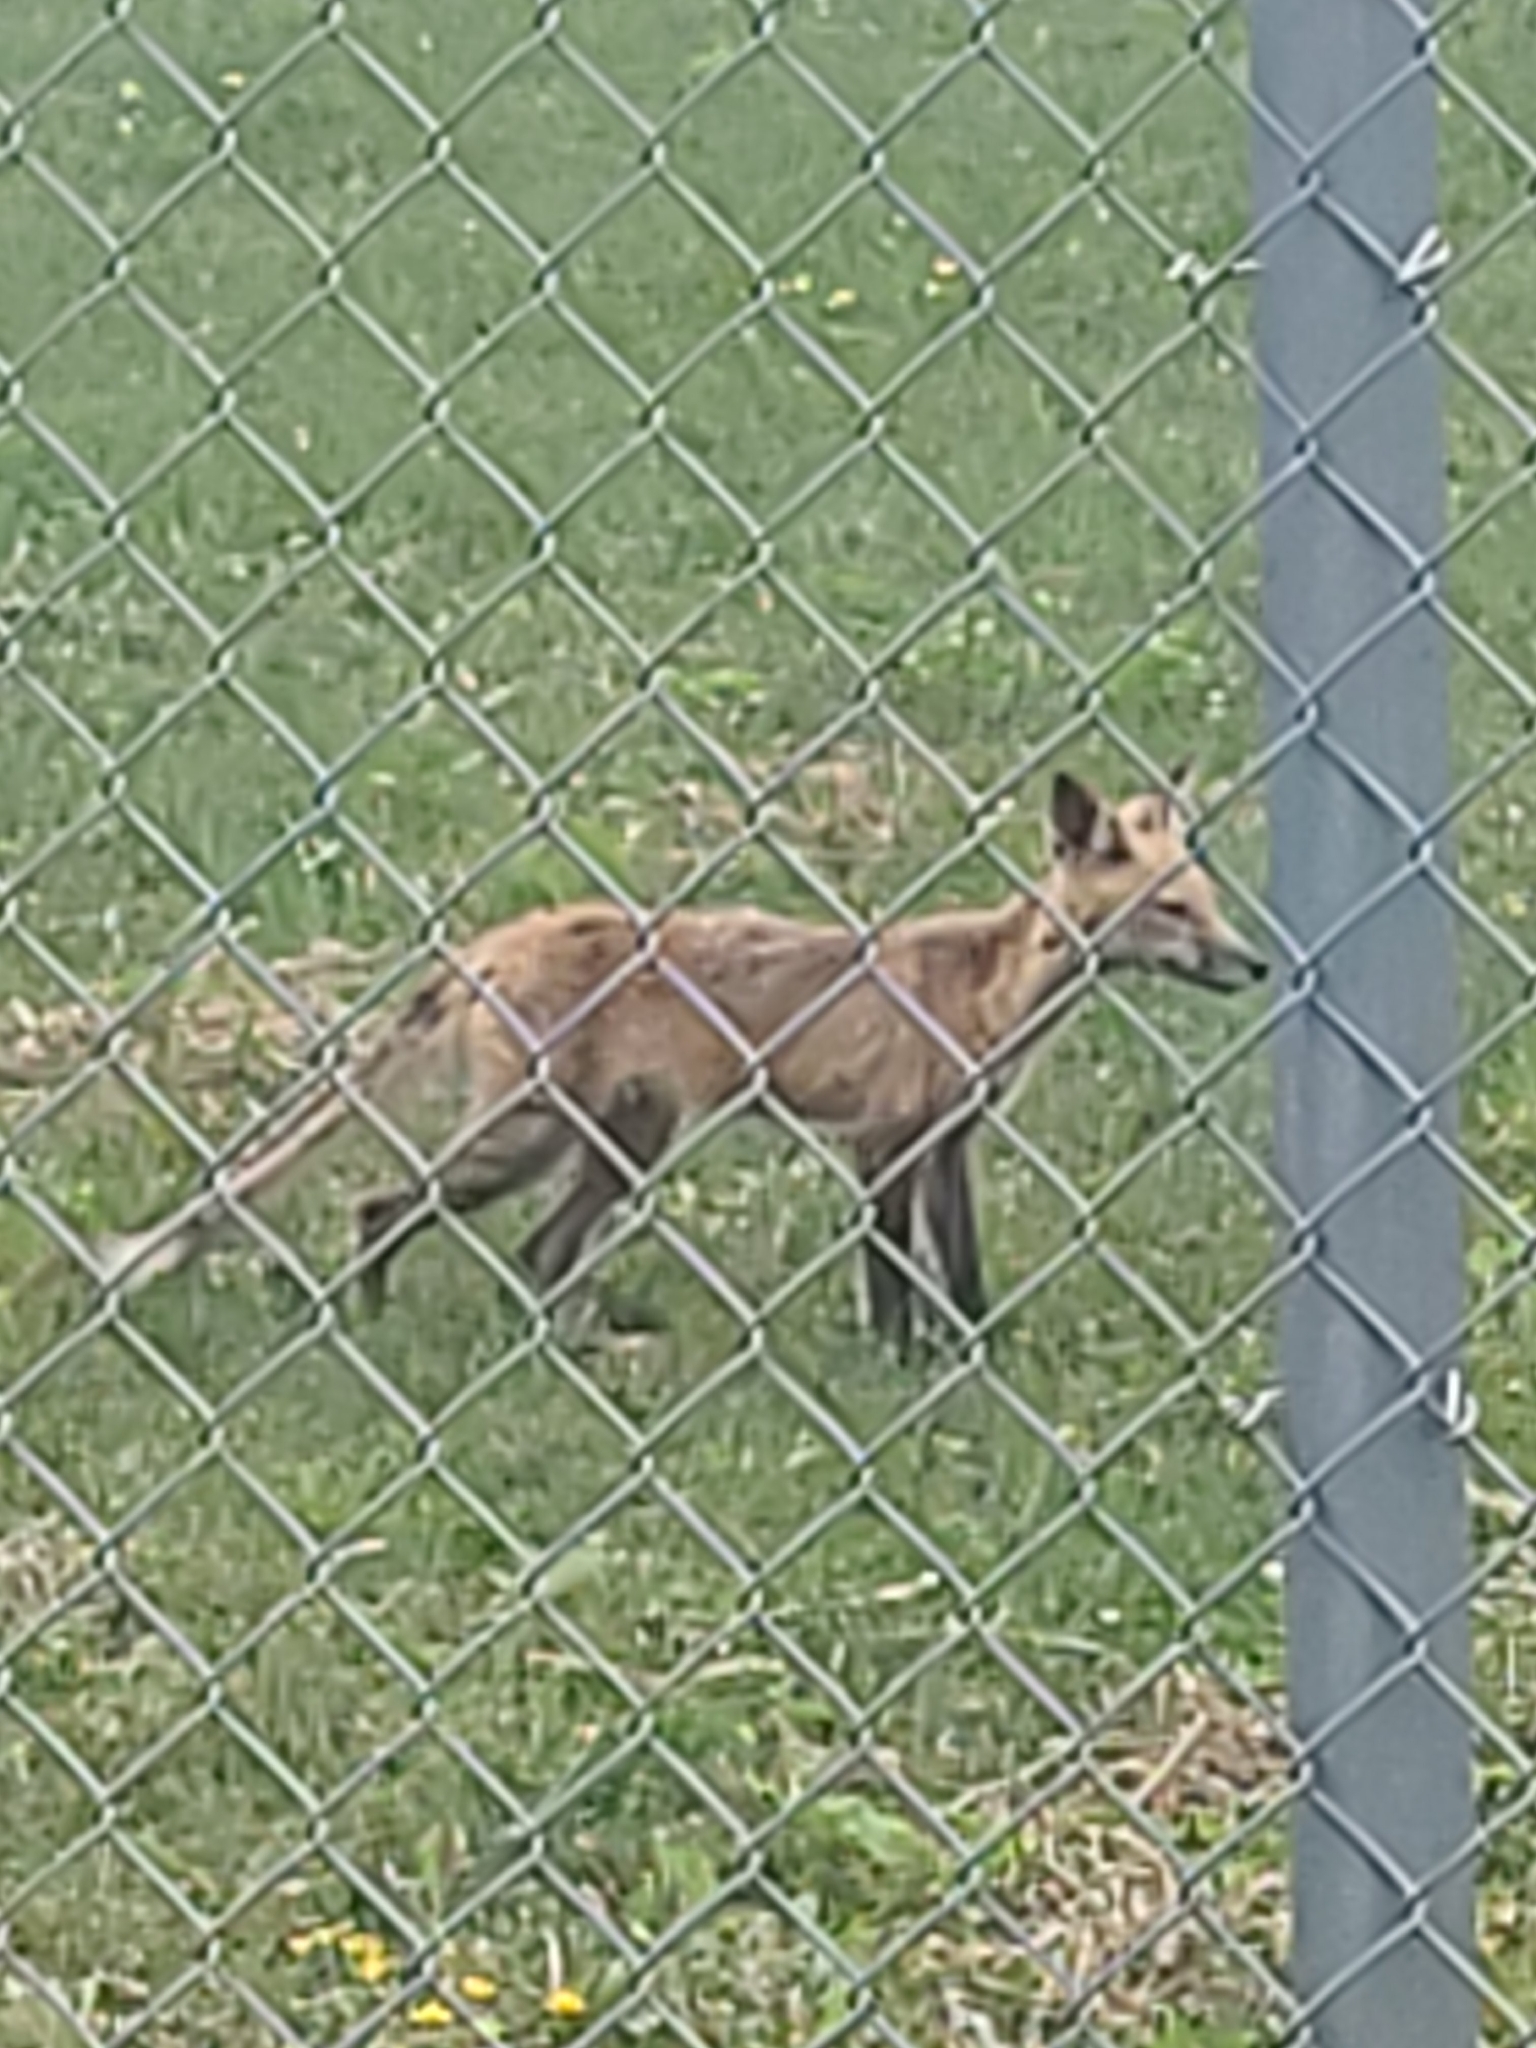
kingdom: Animalia
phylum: Chordata
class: Mammalia
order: Carnivora
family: Canidae
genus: Vulpes
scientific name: Vulpes vulpes
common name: Red fox
